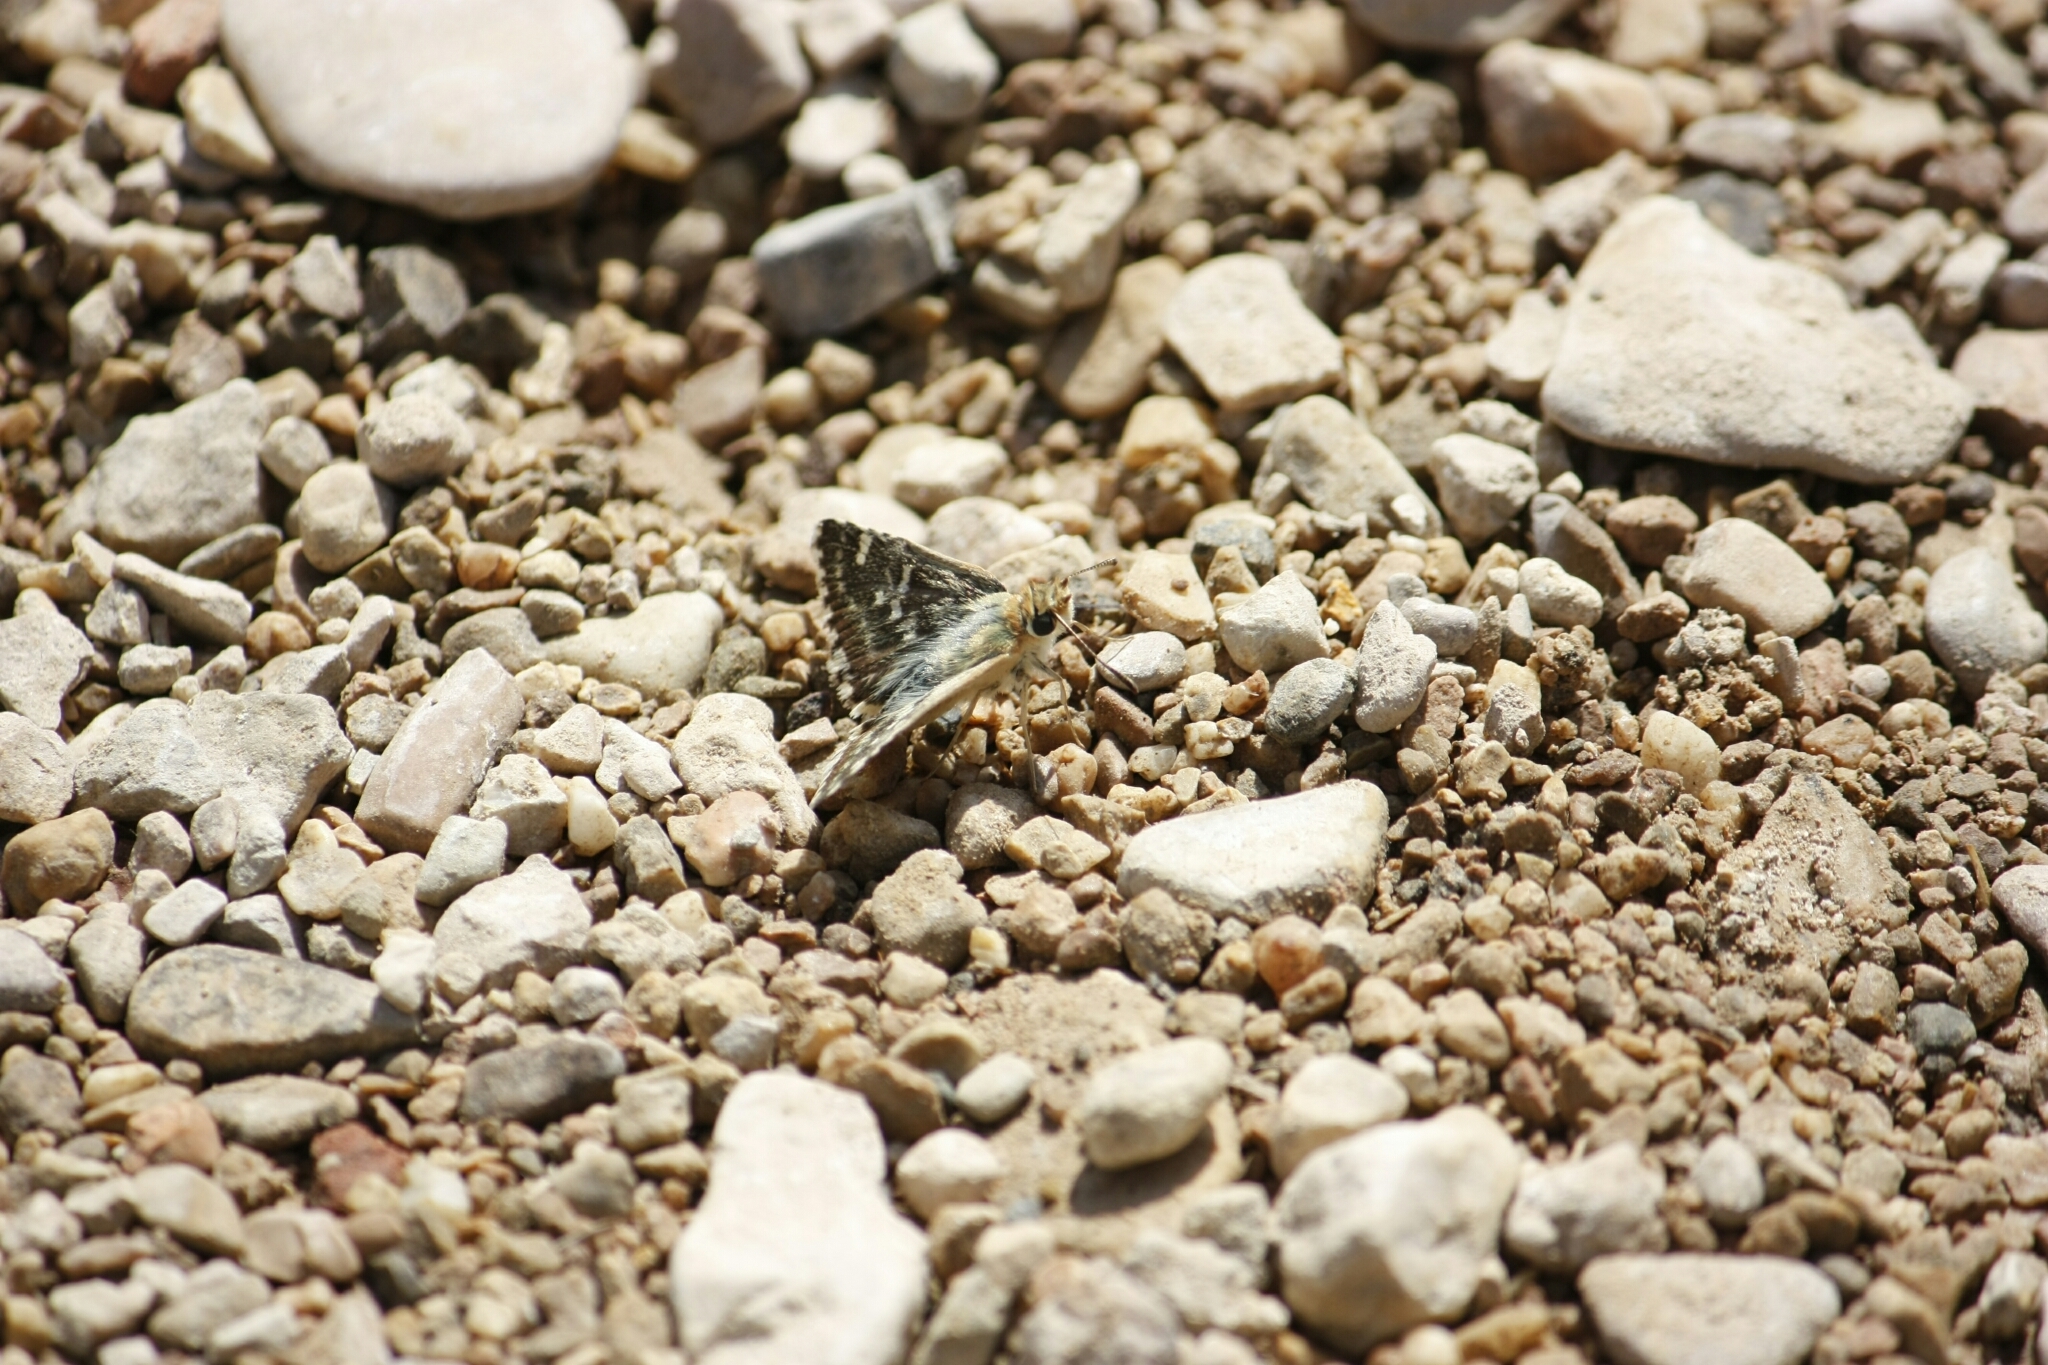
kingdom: Animalia
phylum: Arthropoda
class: Insecta
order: Lepidoptera
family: Hesperiidae
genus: Syrichtus
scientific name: Syrichtus Muschampia proto
